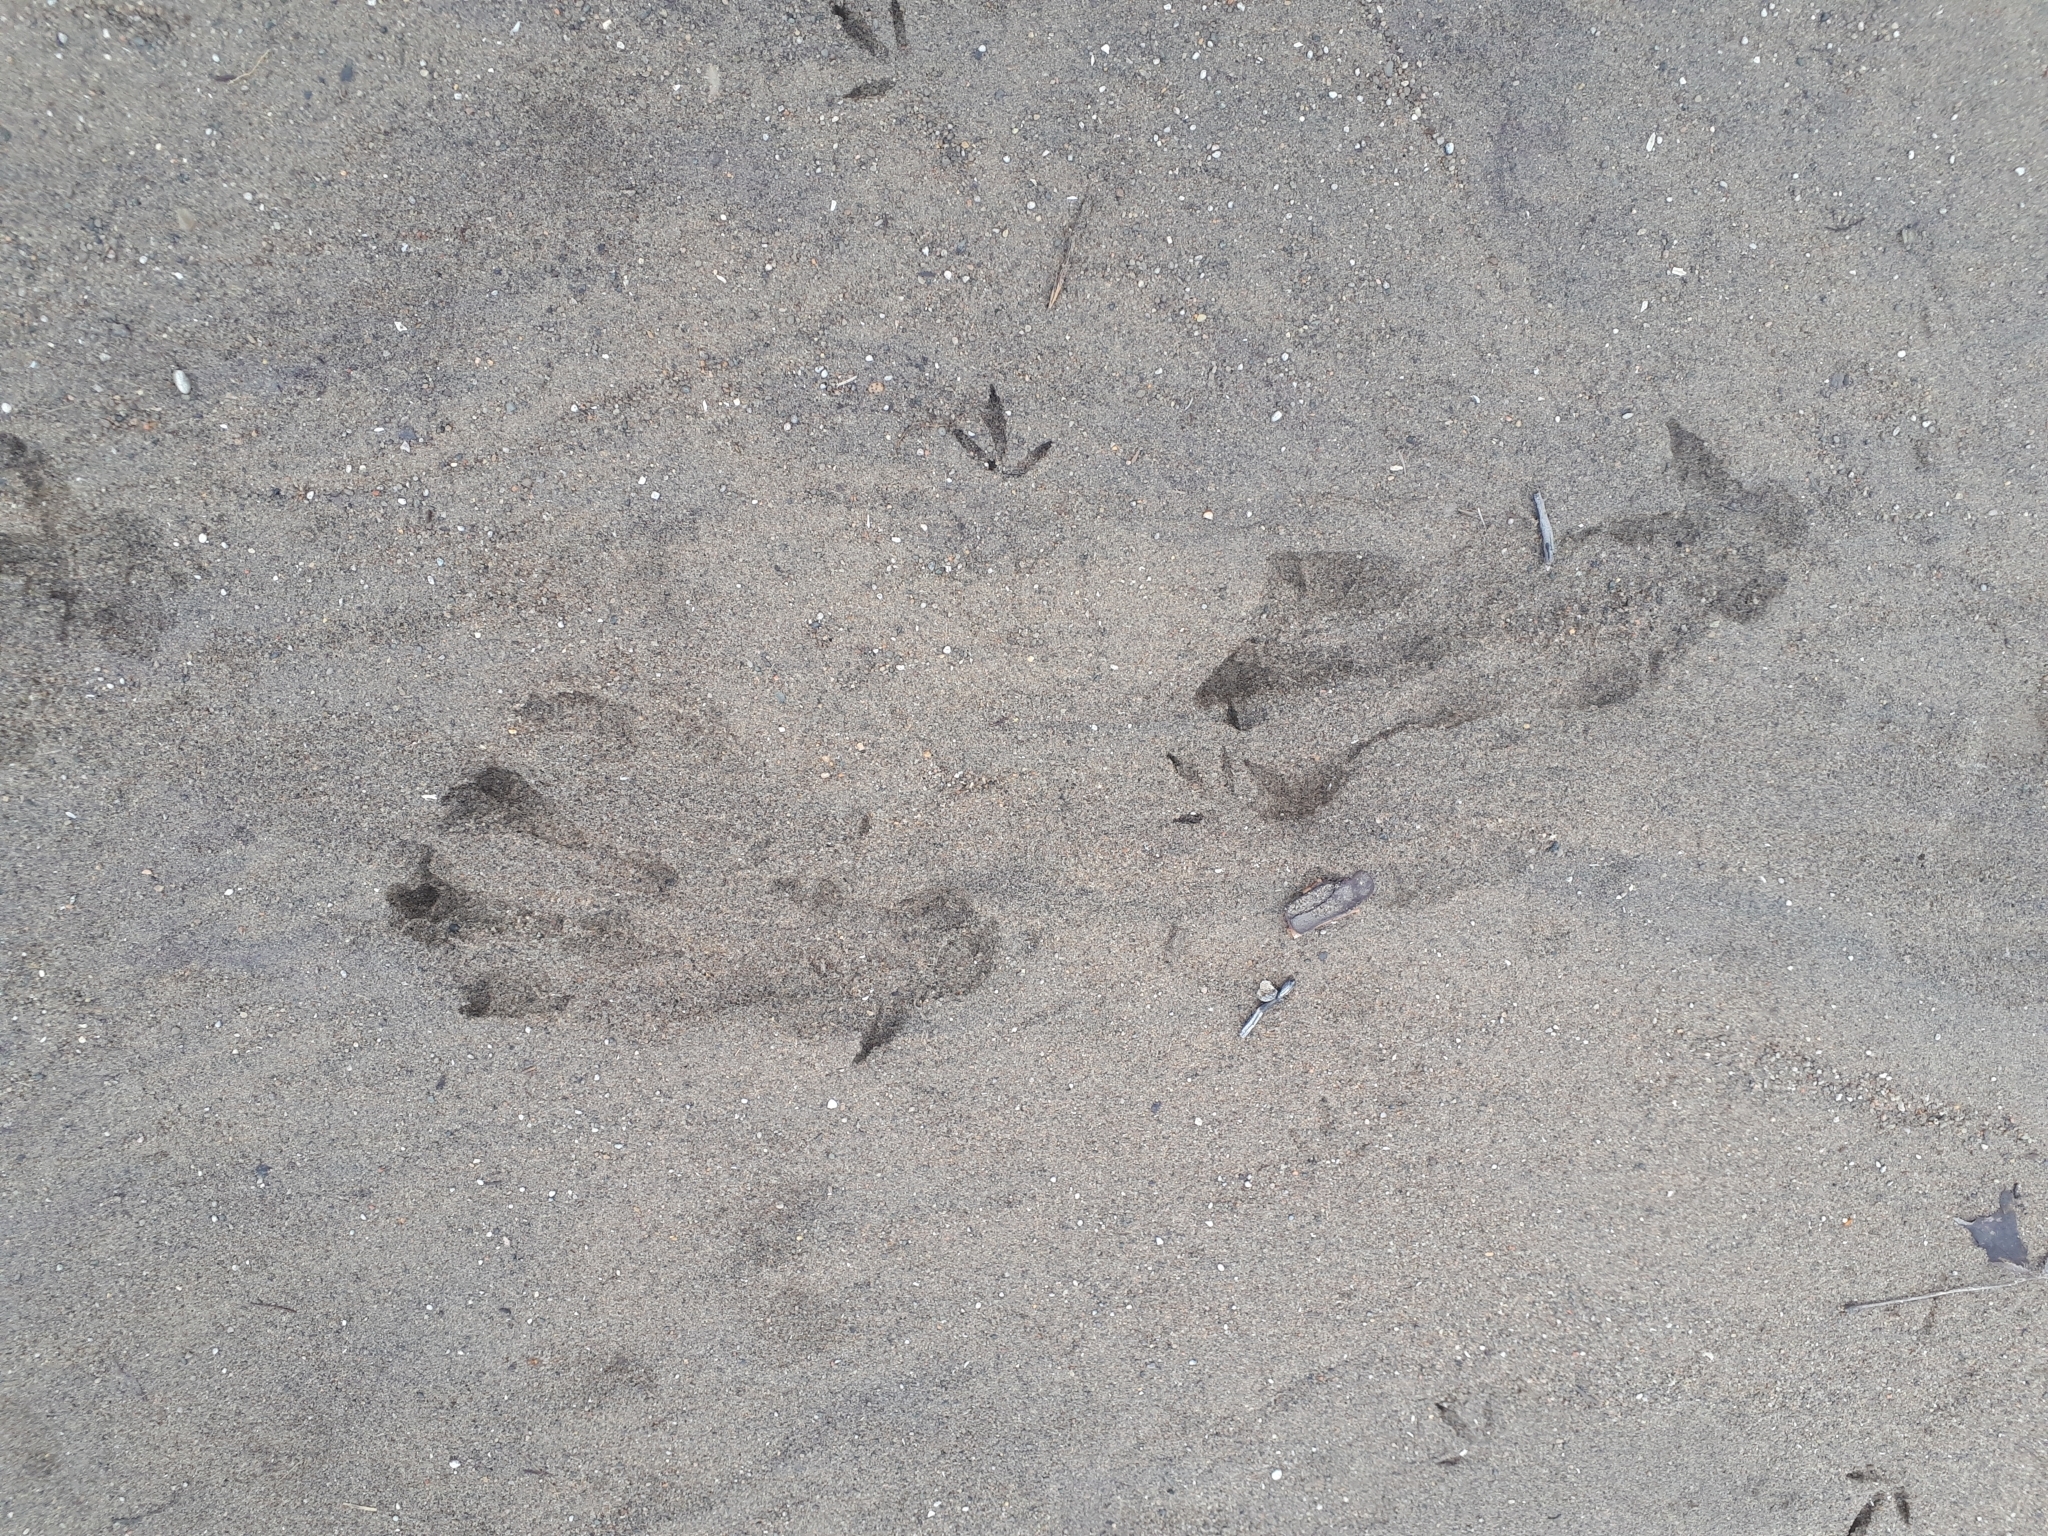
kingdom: Animalia
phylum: Chordata
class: Mammalia
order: Rodentia
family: Castoridae
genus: Castor
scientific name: Castor canadensis
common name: American beaver
